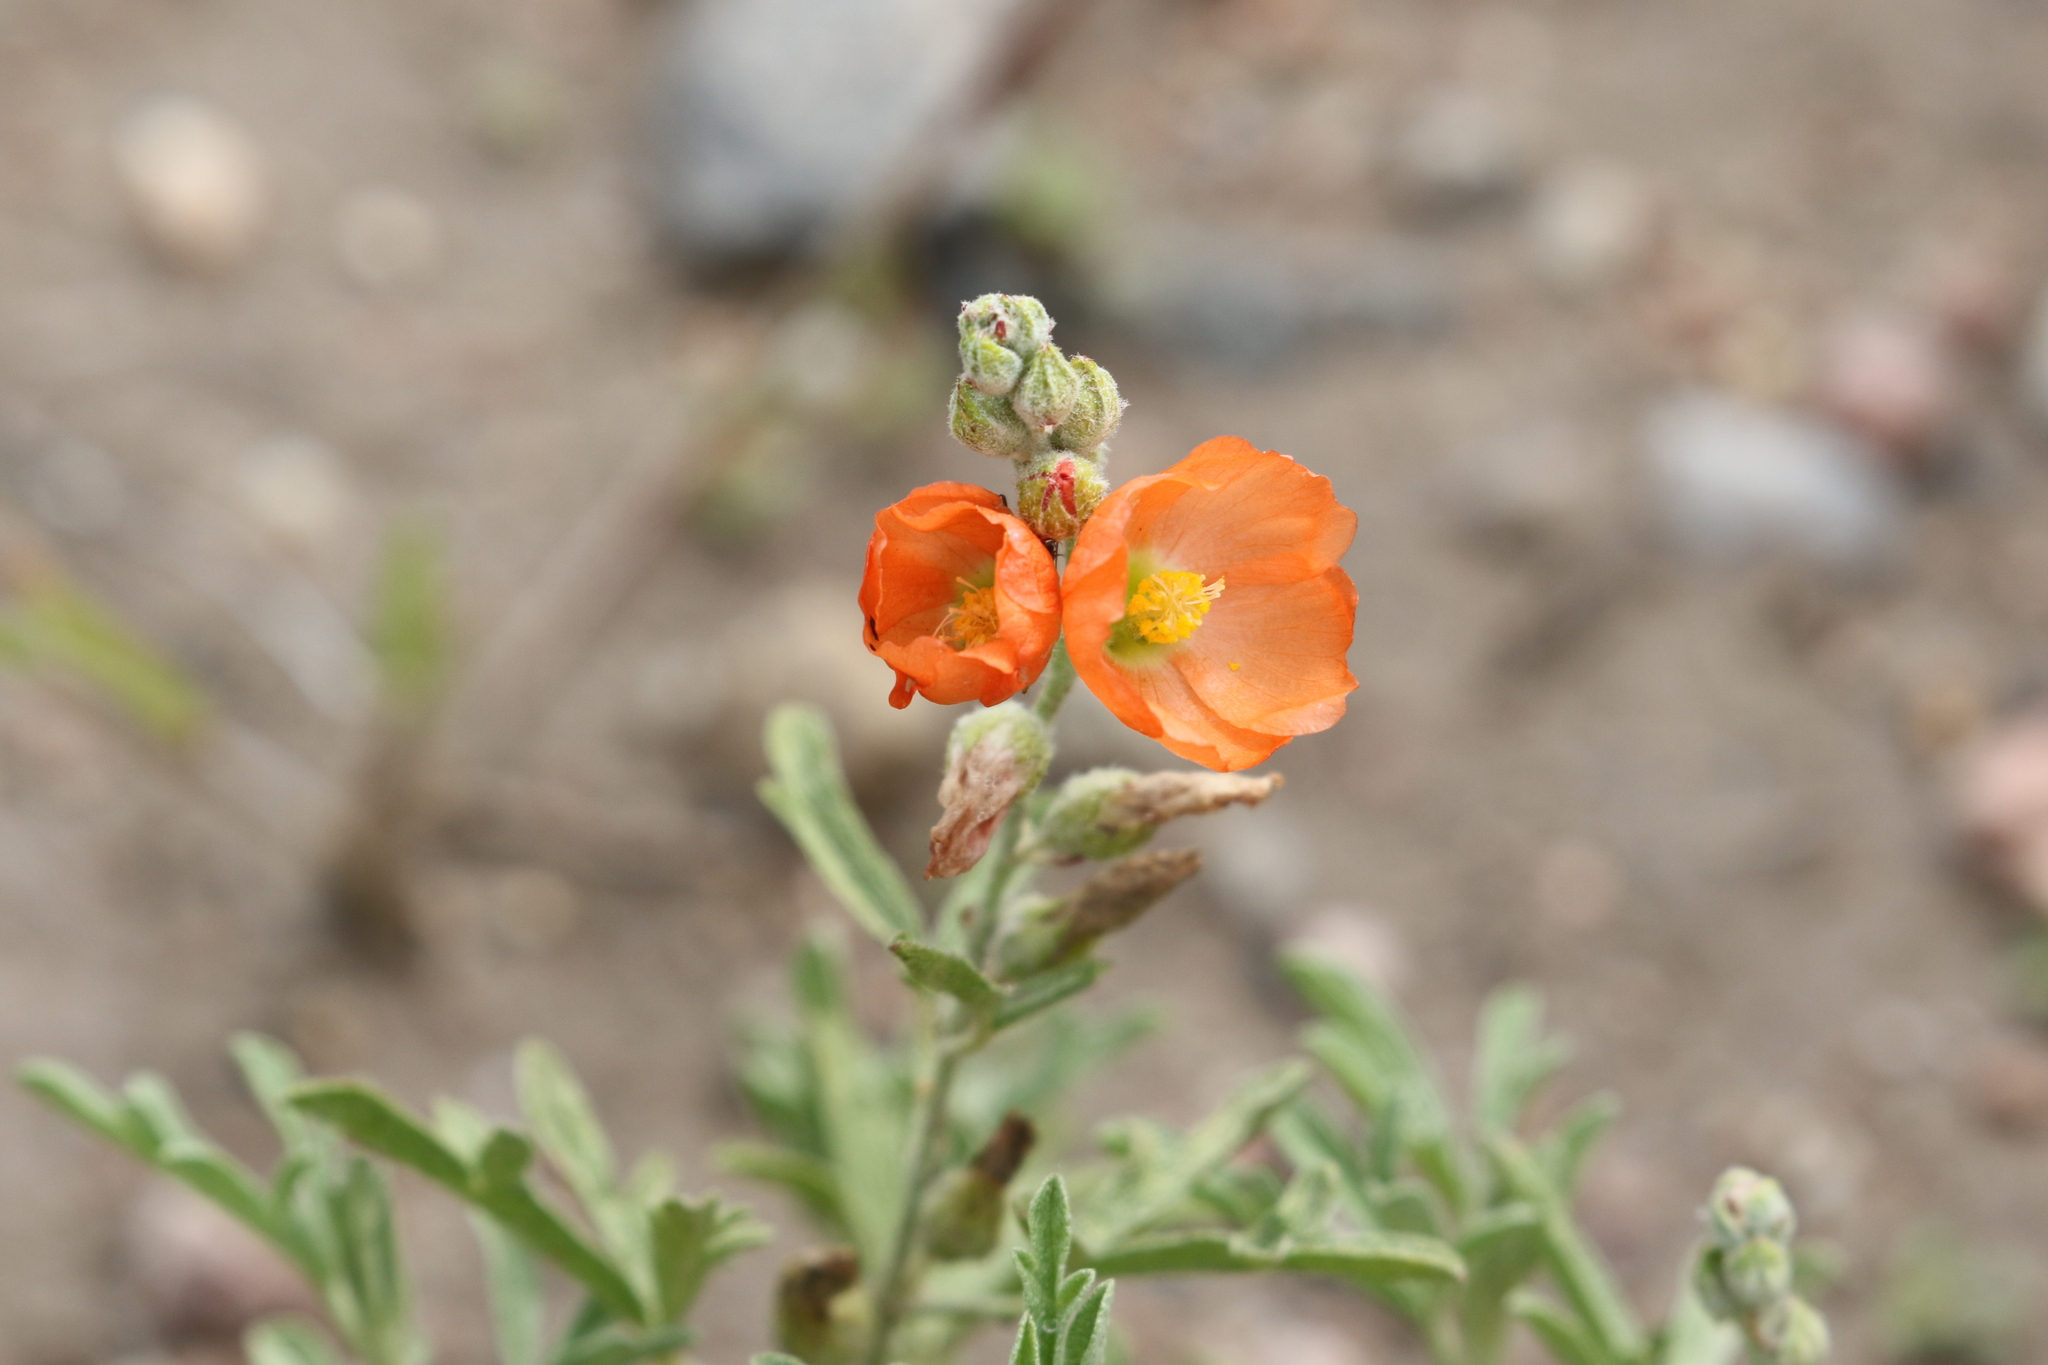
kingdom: Plantae
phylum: Tracheophyta
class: Magnoliopsida
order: Malvales
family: Malvaceae
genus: Sphaeralcea
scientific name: Sphaeralcea coccinea
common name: Moss-rose
